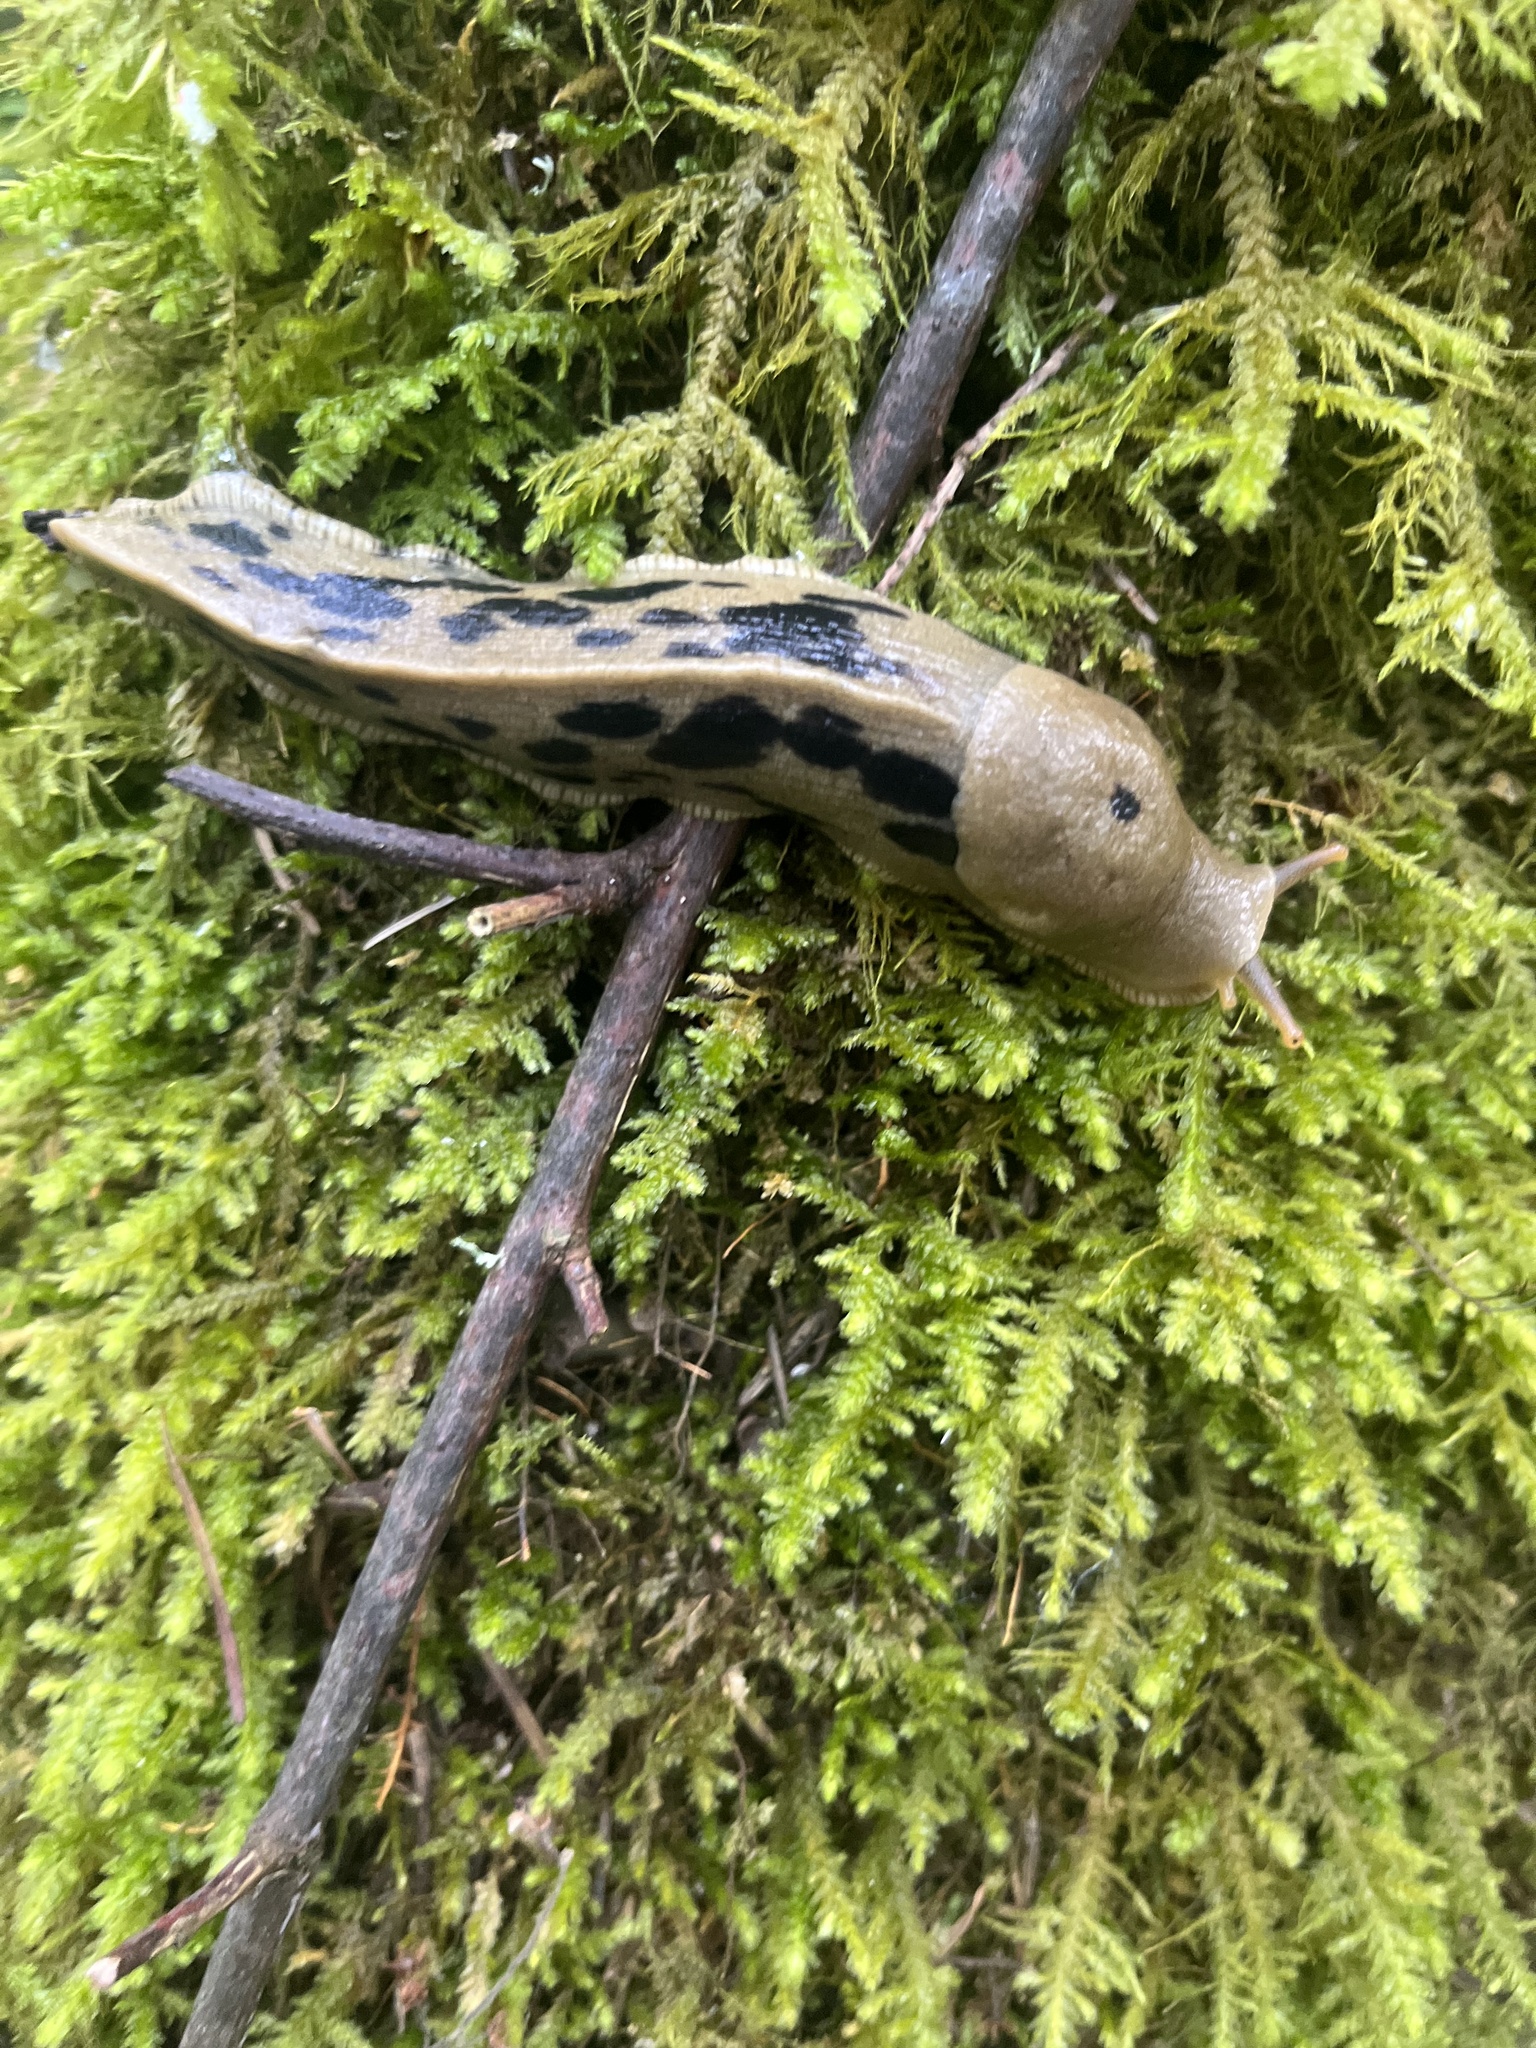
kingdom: Animalia
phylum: Mollusca
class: Gastropoda
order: Stylommatophora
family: Ariolimacidae
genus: Ariolimax
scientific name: Ariolimax columbianus
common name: Pacific banana slug
